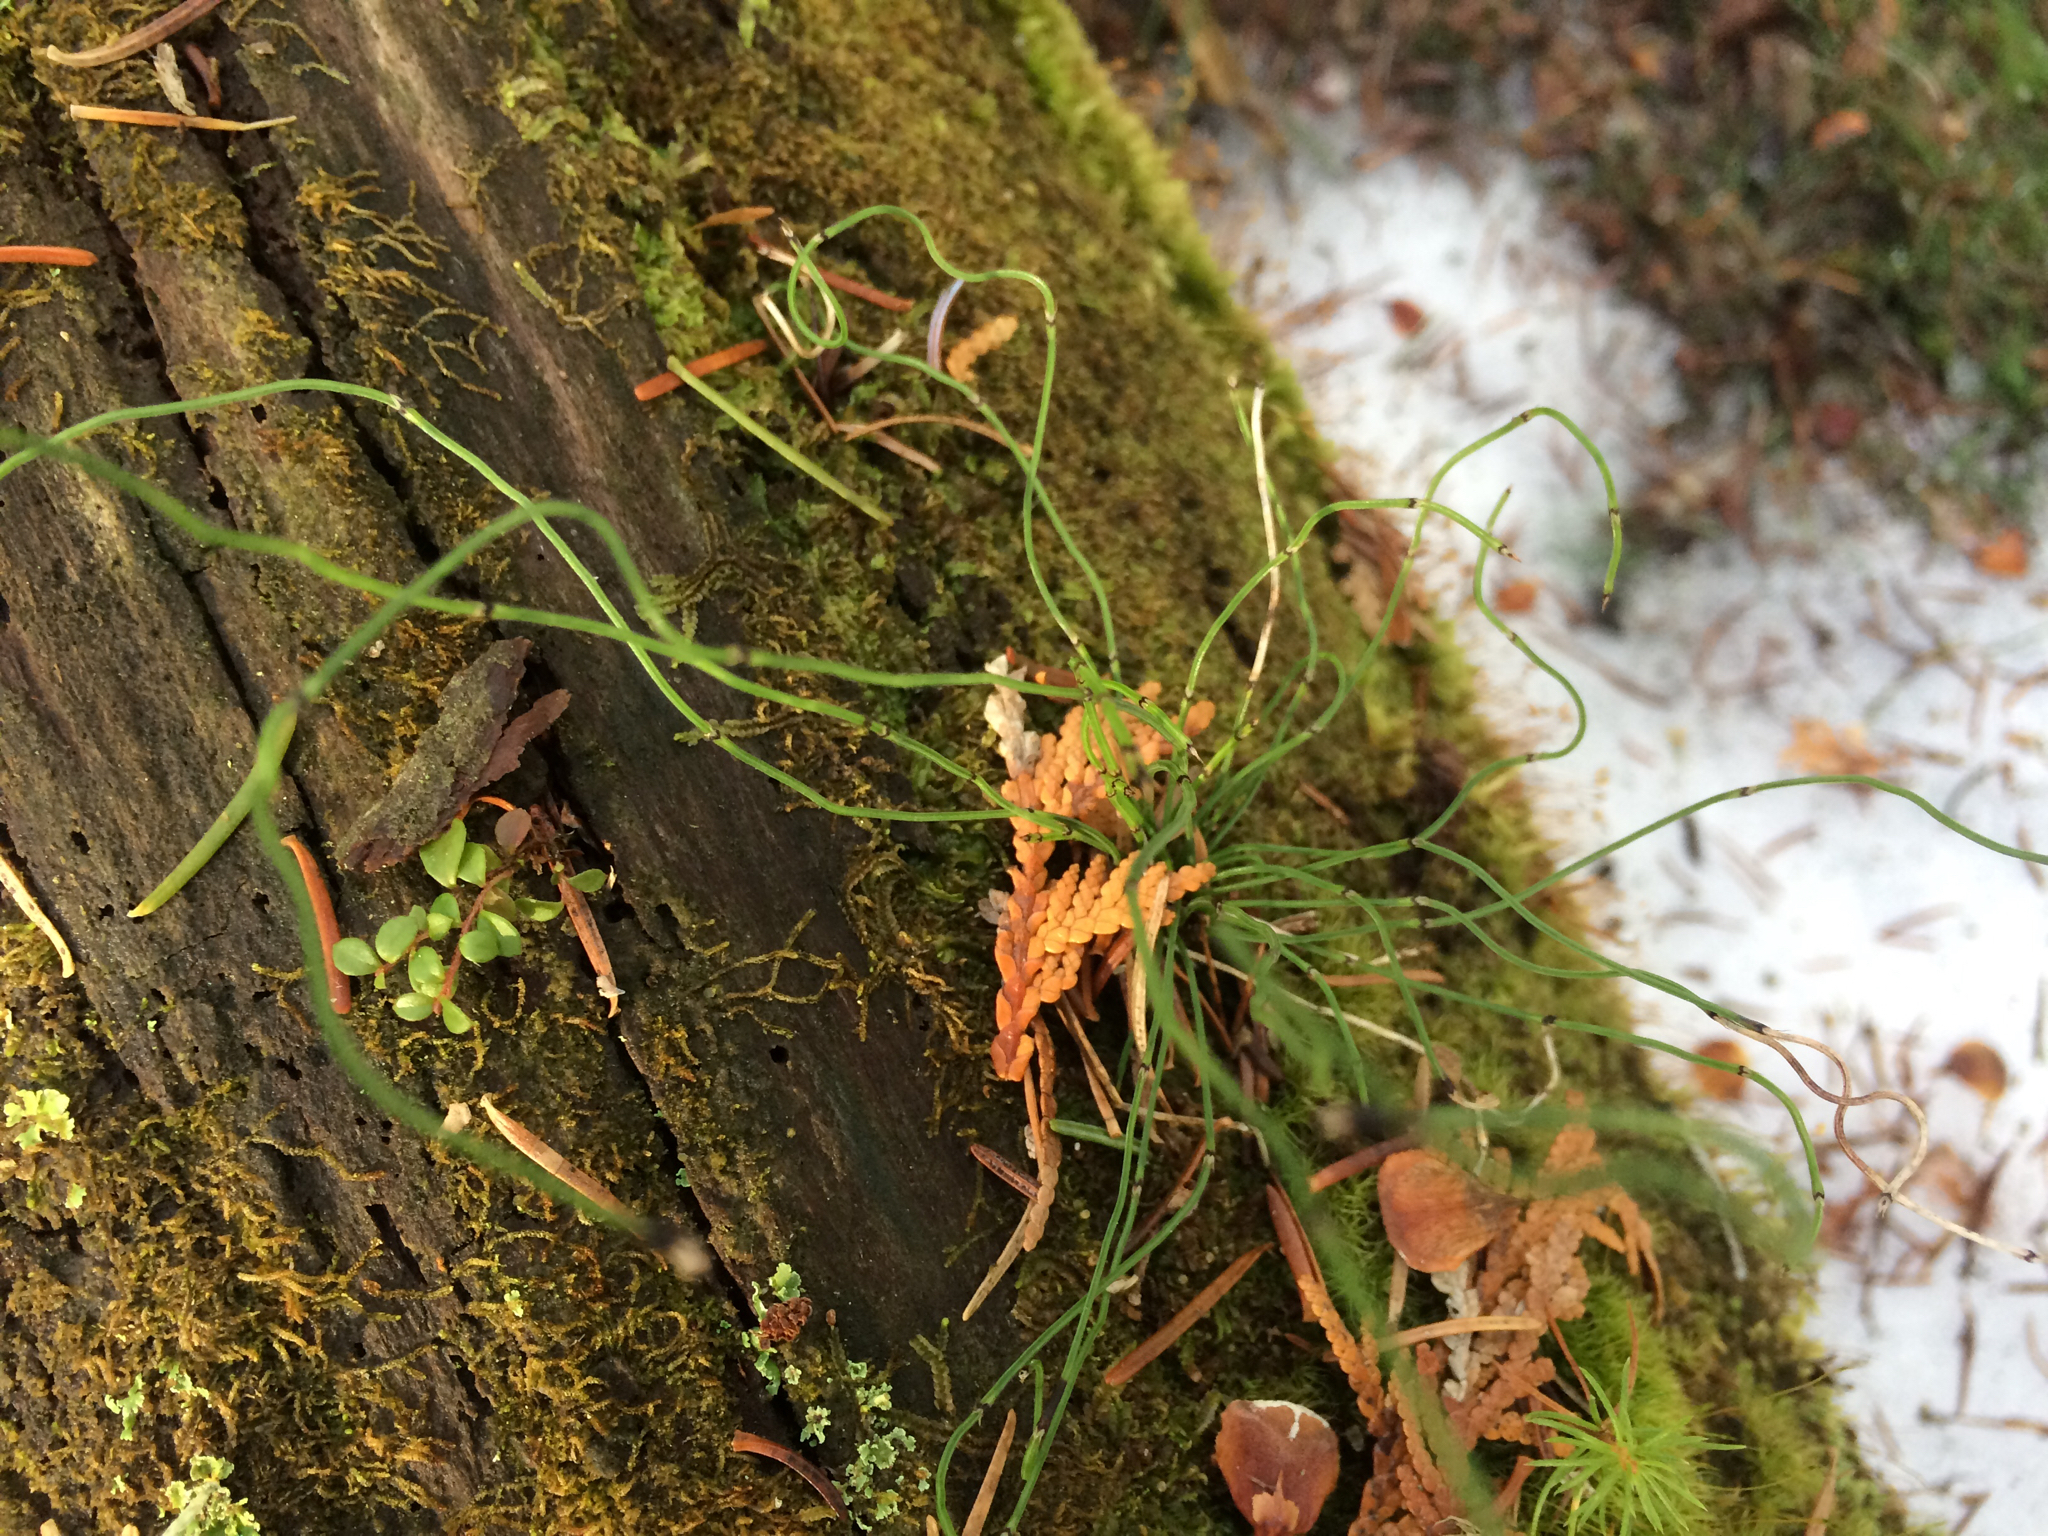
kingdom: Plantae
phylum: Tracheophyta
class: Polypodiopsida
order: Equisetales
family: Equisetaceae
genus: Equisetum
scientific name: Equisetum scirpoides
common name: Delicate horsetail
